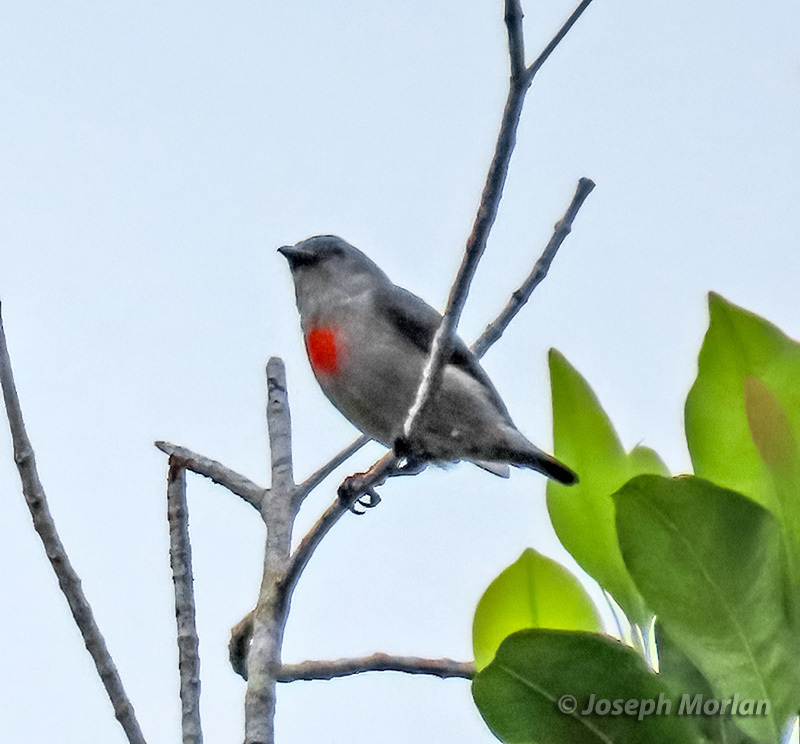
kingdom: Animalia
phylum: Chordata
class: Aves
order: Passeriformes
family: Dicaeidae
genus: Dicaeum
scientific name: Dicaeum vulneratum
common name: Ashy flowerpecker
